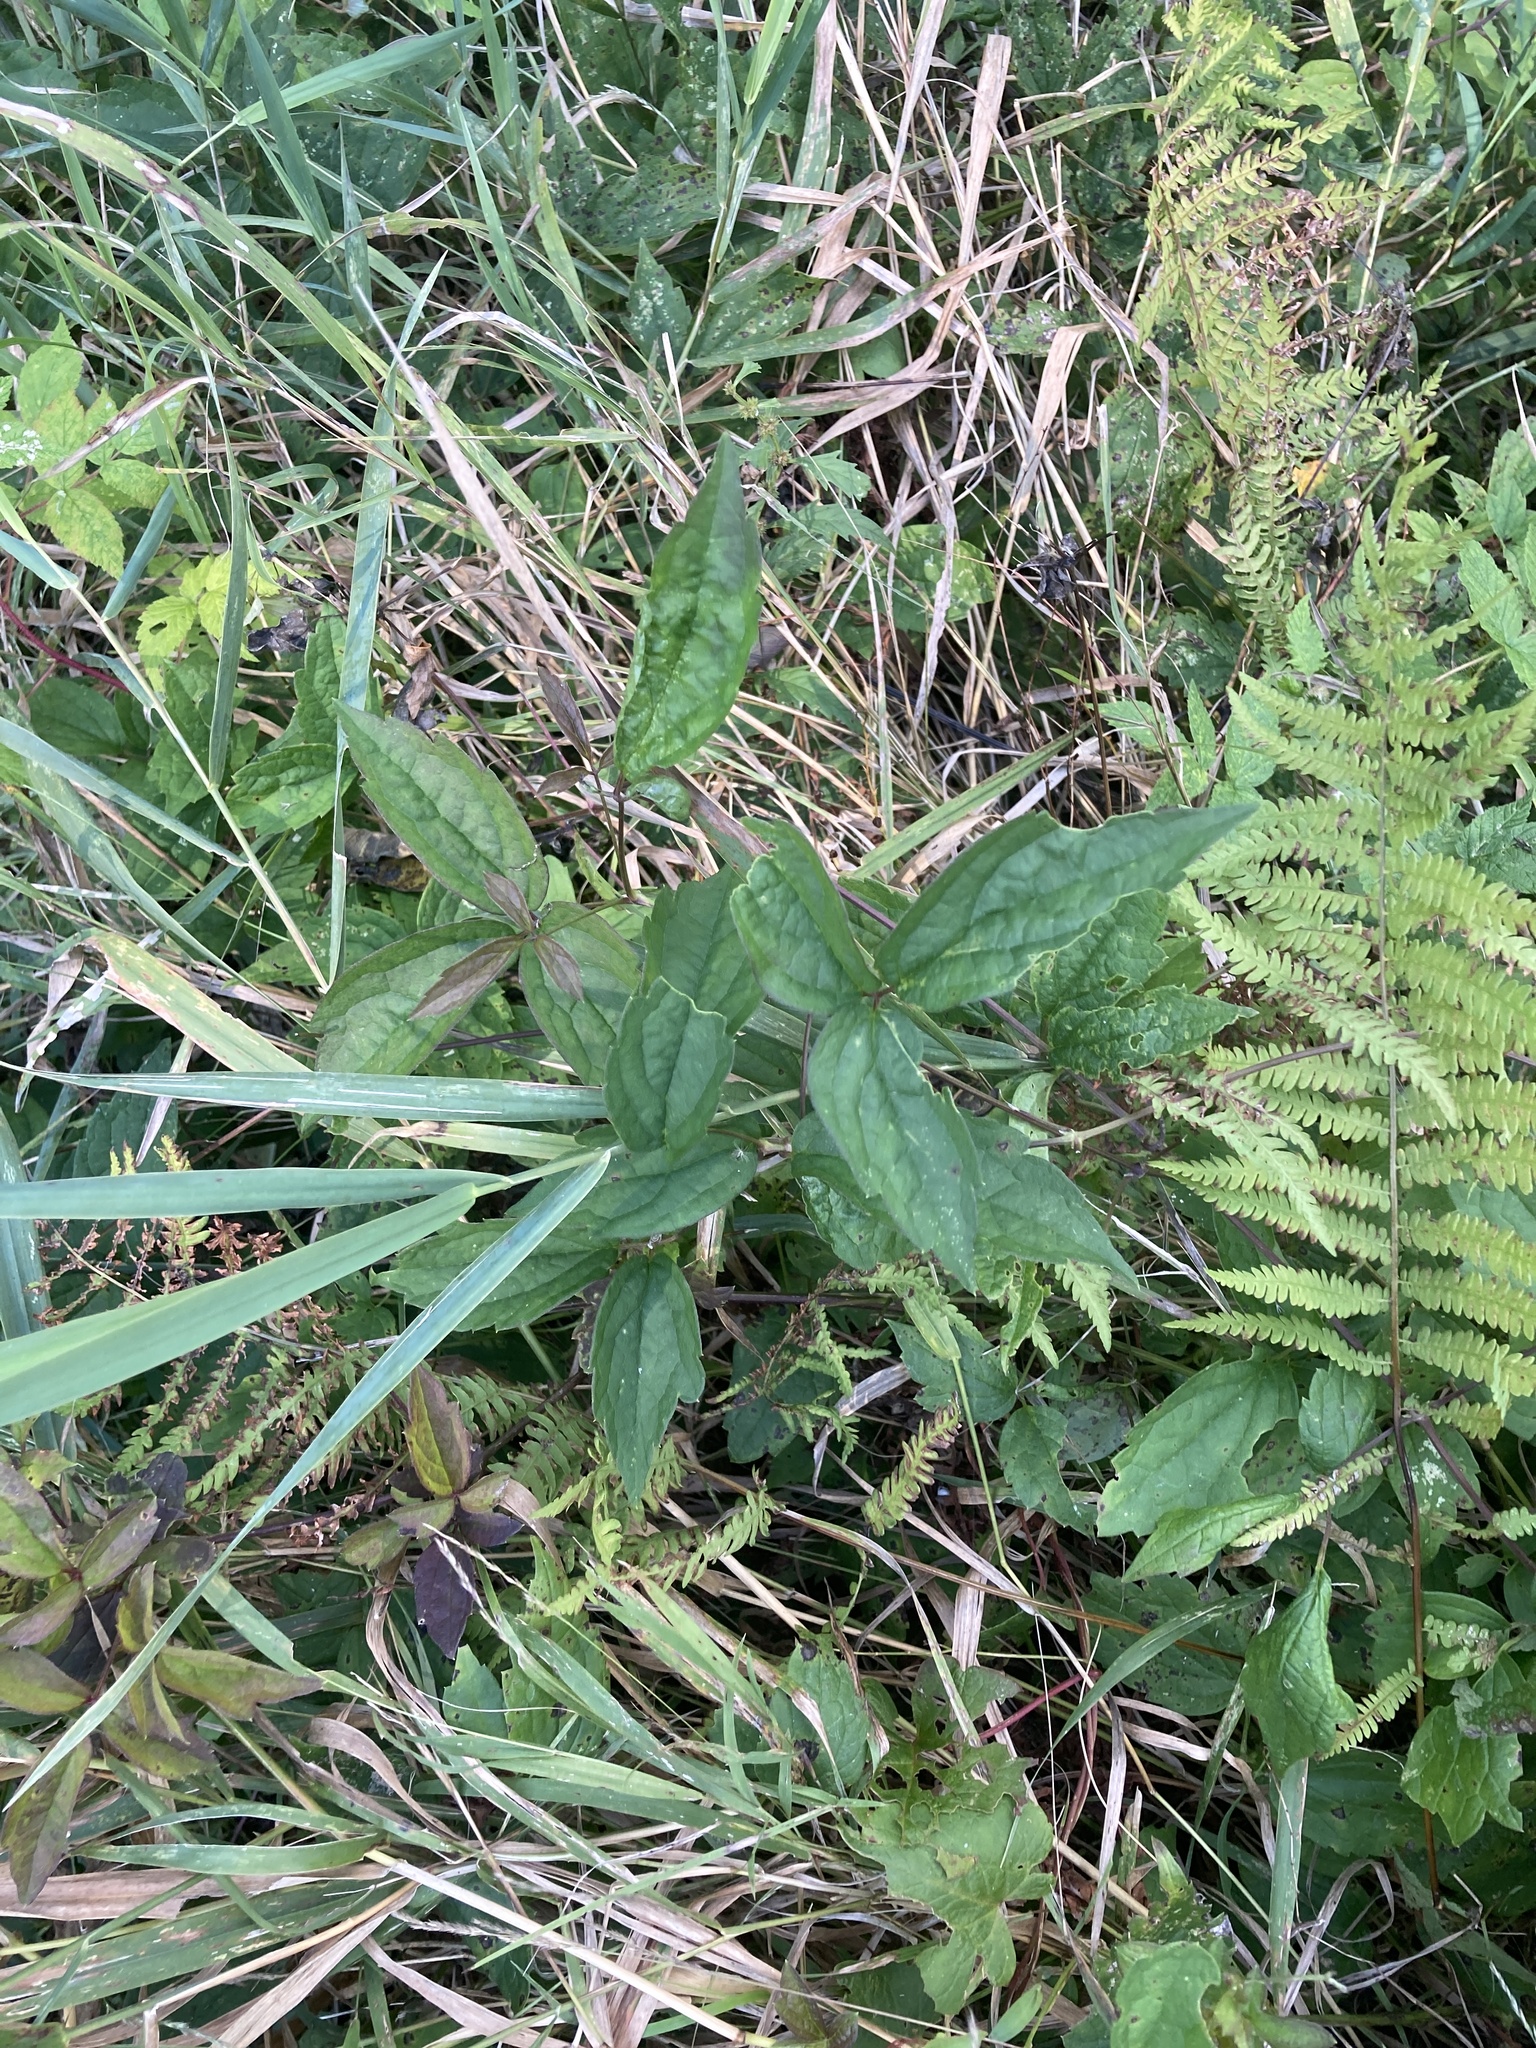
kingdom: Plantae
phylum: Tracheophyta
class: Magnoliopsida
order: Ranunculales
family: Ranunculaceae
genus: Clematis
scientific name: Clematis virginiana
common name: Virgin's-bower
